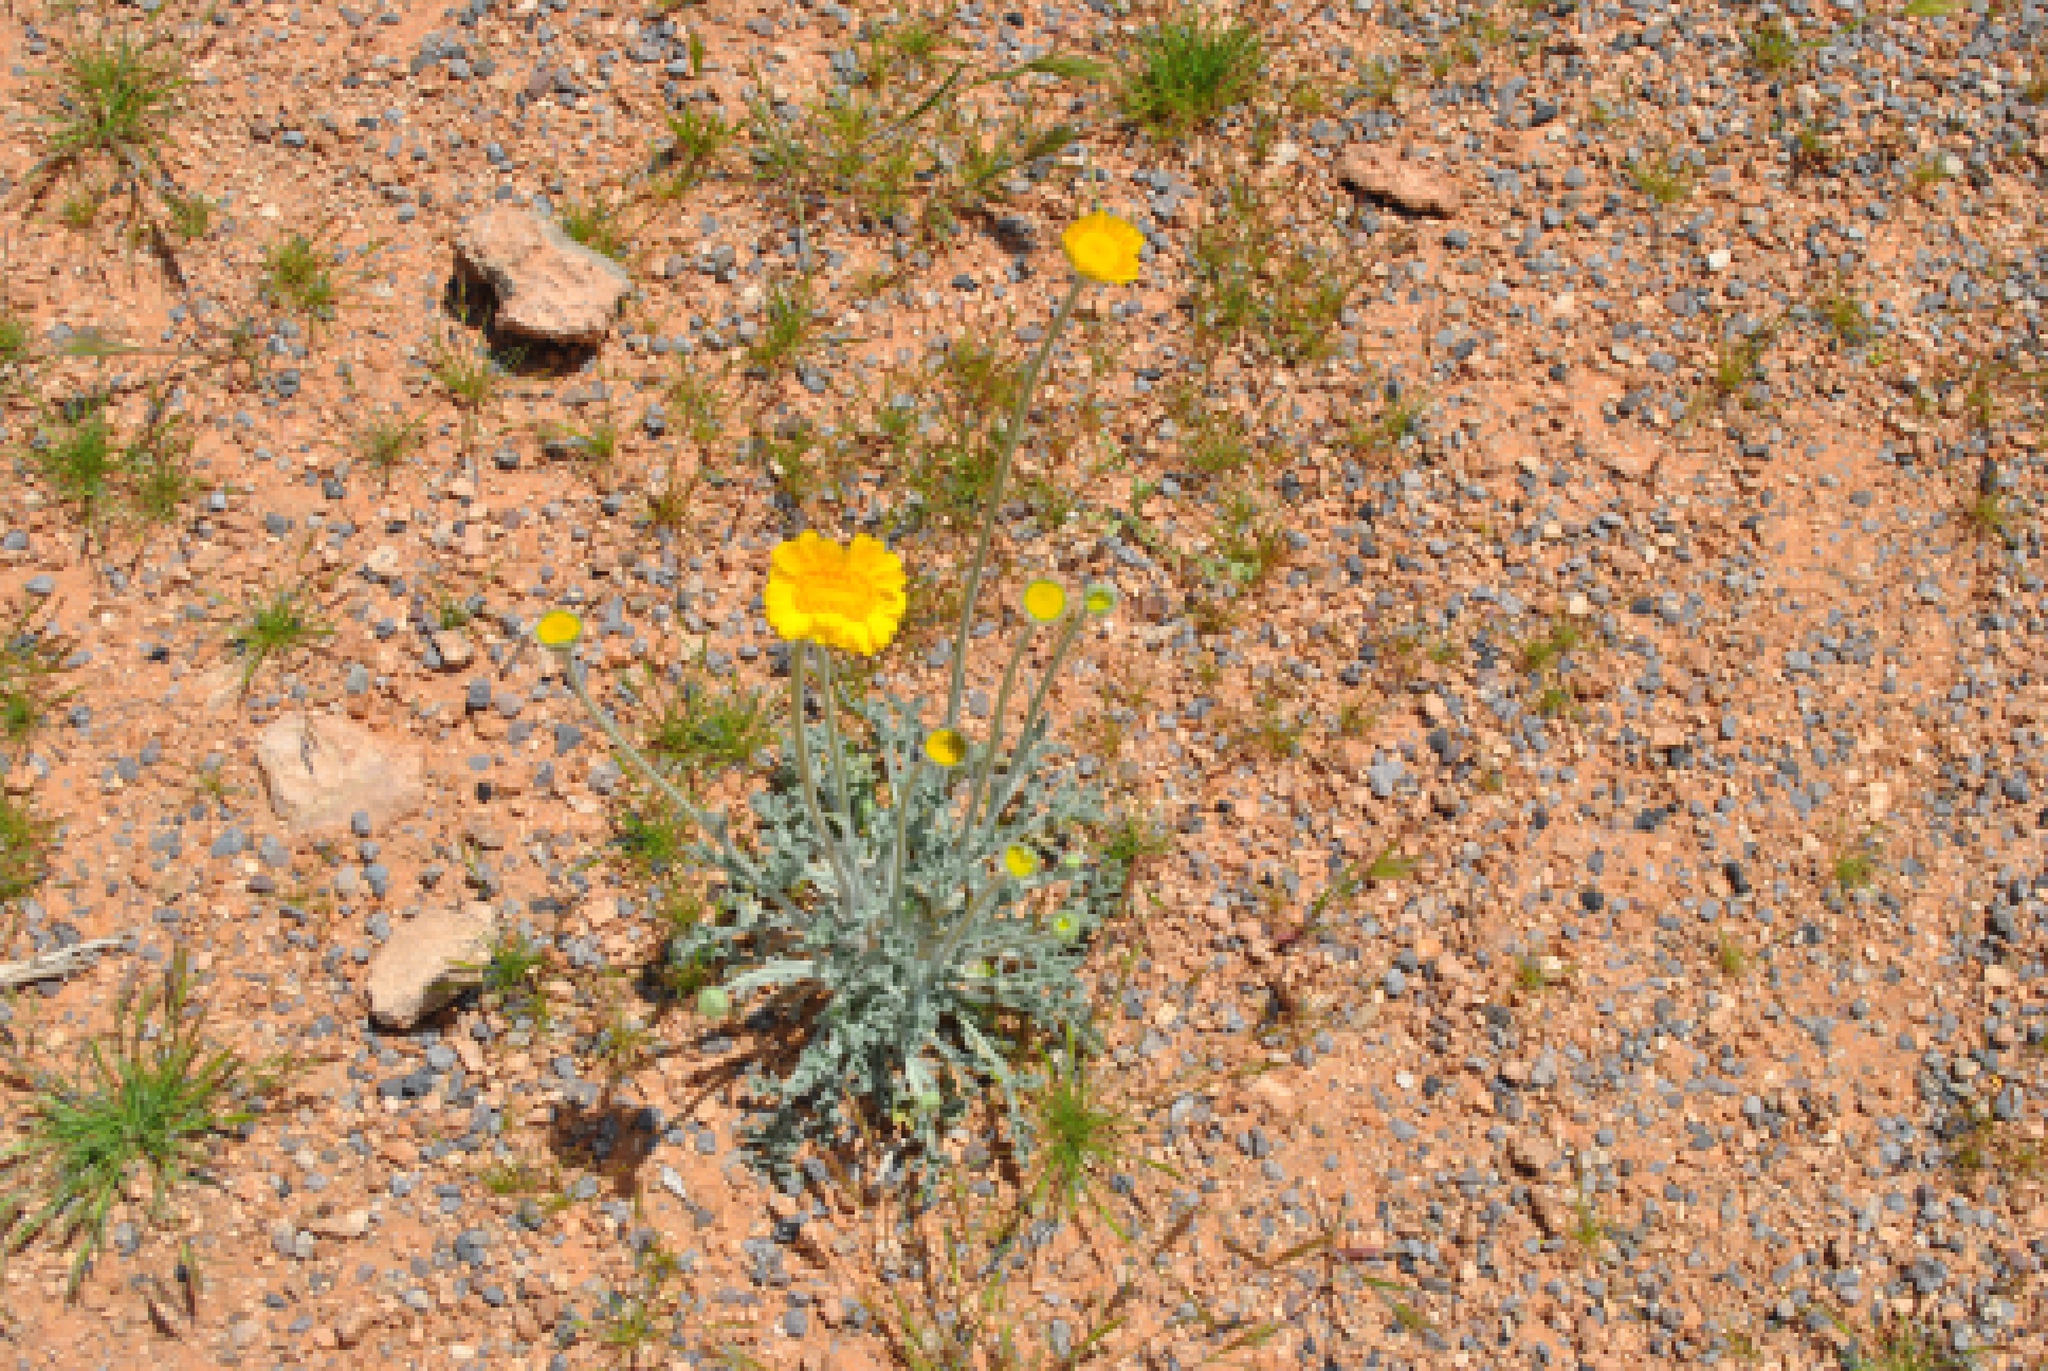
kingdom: Plantae
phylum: Tracheophyta
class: Magnoliopsida
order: Asterales
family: Asteraceae
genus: Baileya
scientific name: Baileya multiradiata
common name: Desert-marigold
